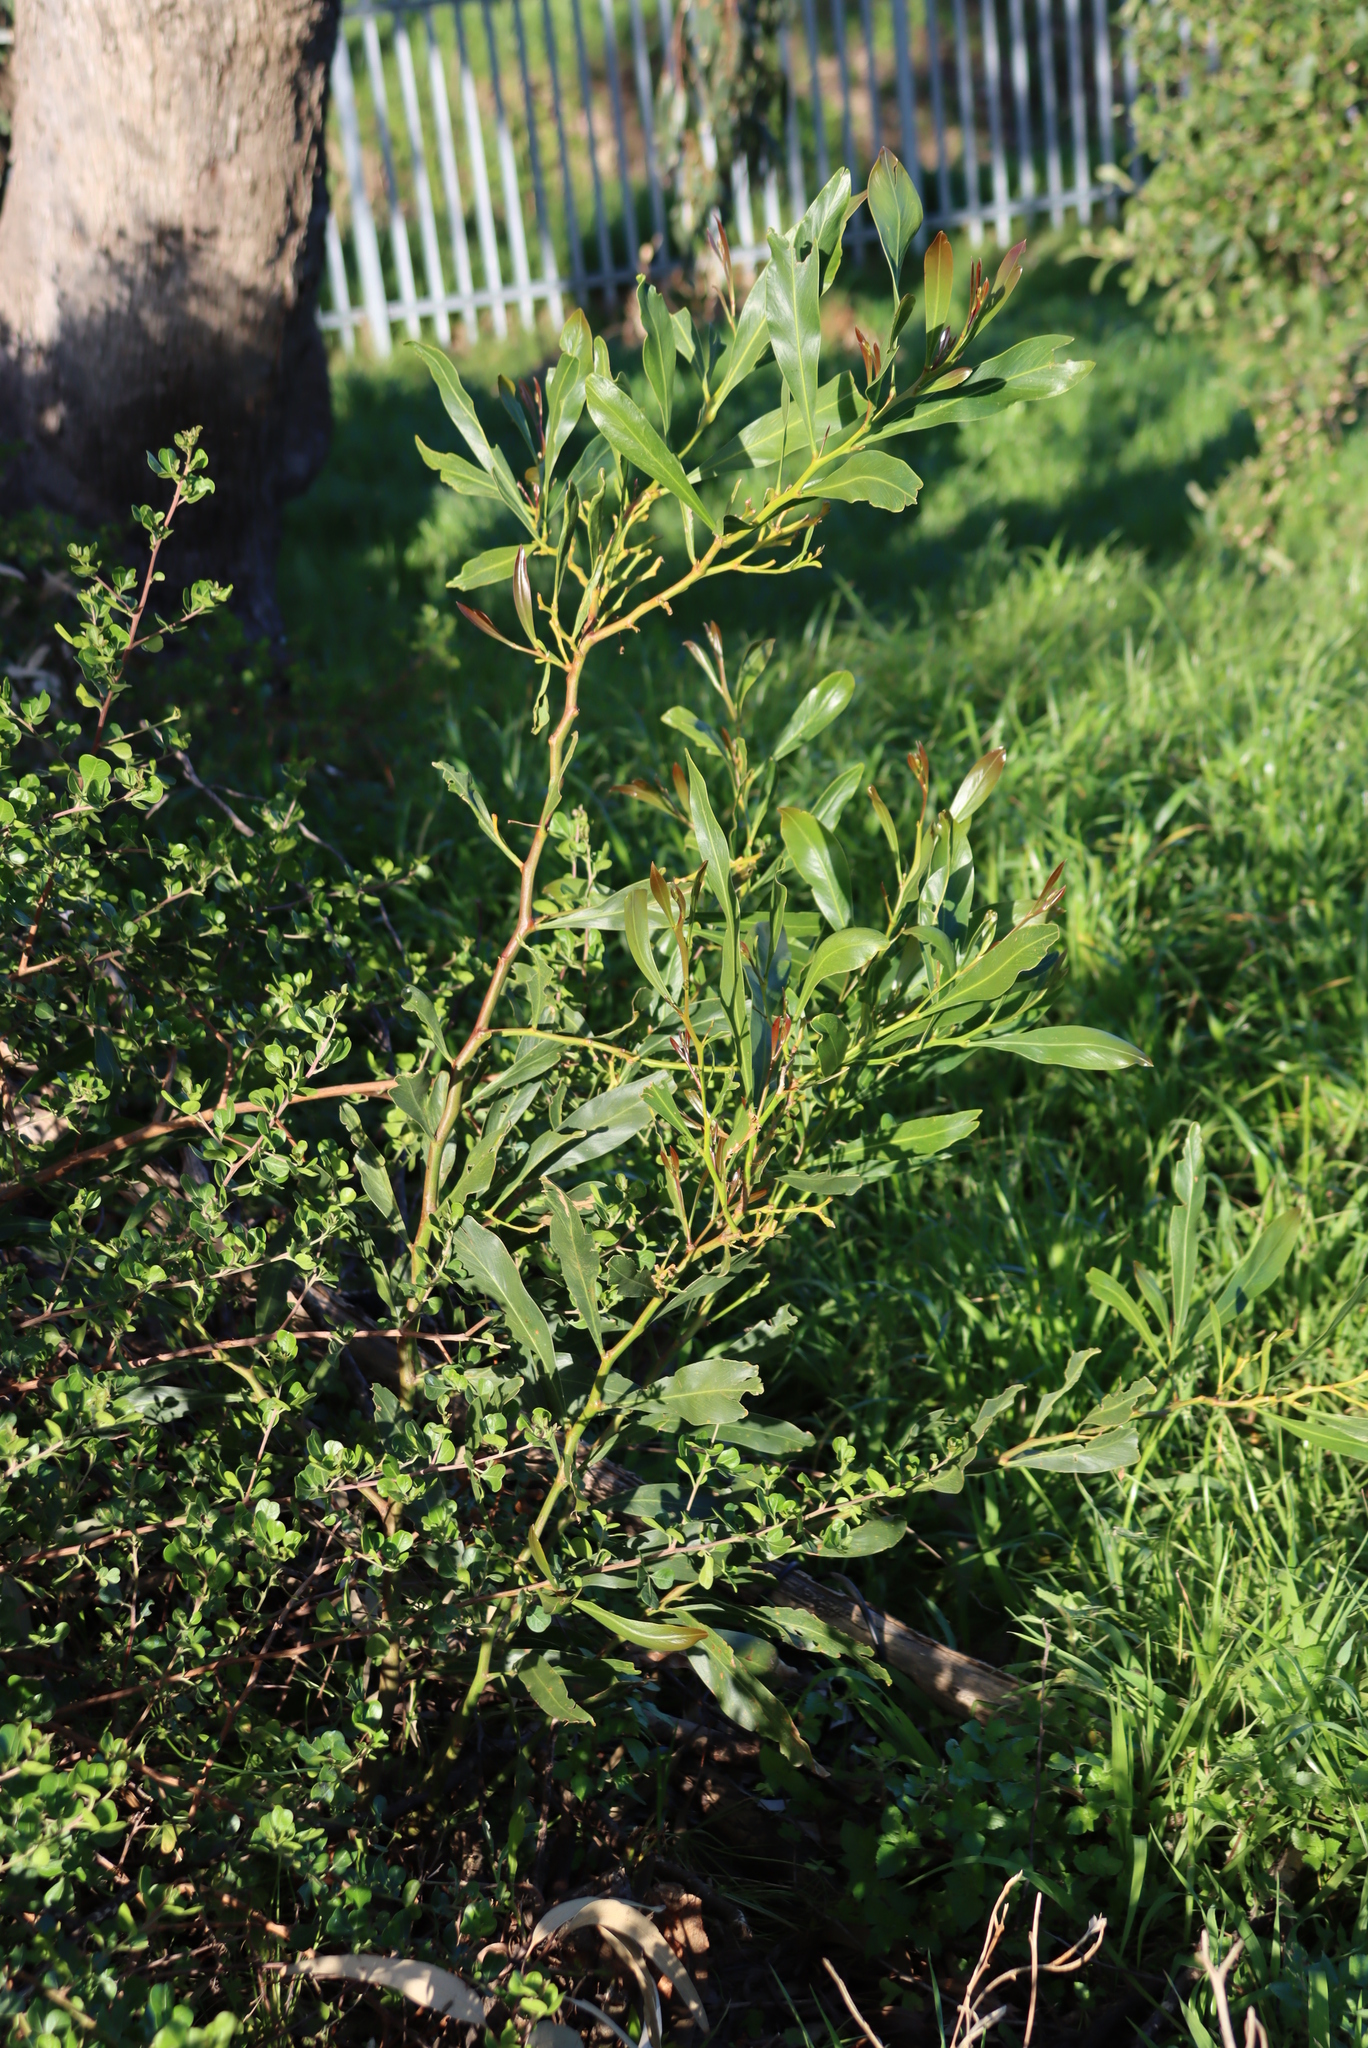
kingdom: Plantae
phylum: Tracheophyta
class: Magnoliopsida
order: Fabales
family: Fabaceae
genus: Acacia
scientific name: Acacia saligna
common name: Orange wattle
